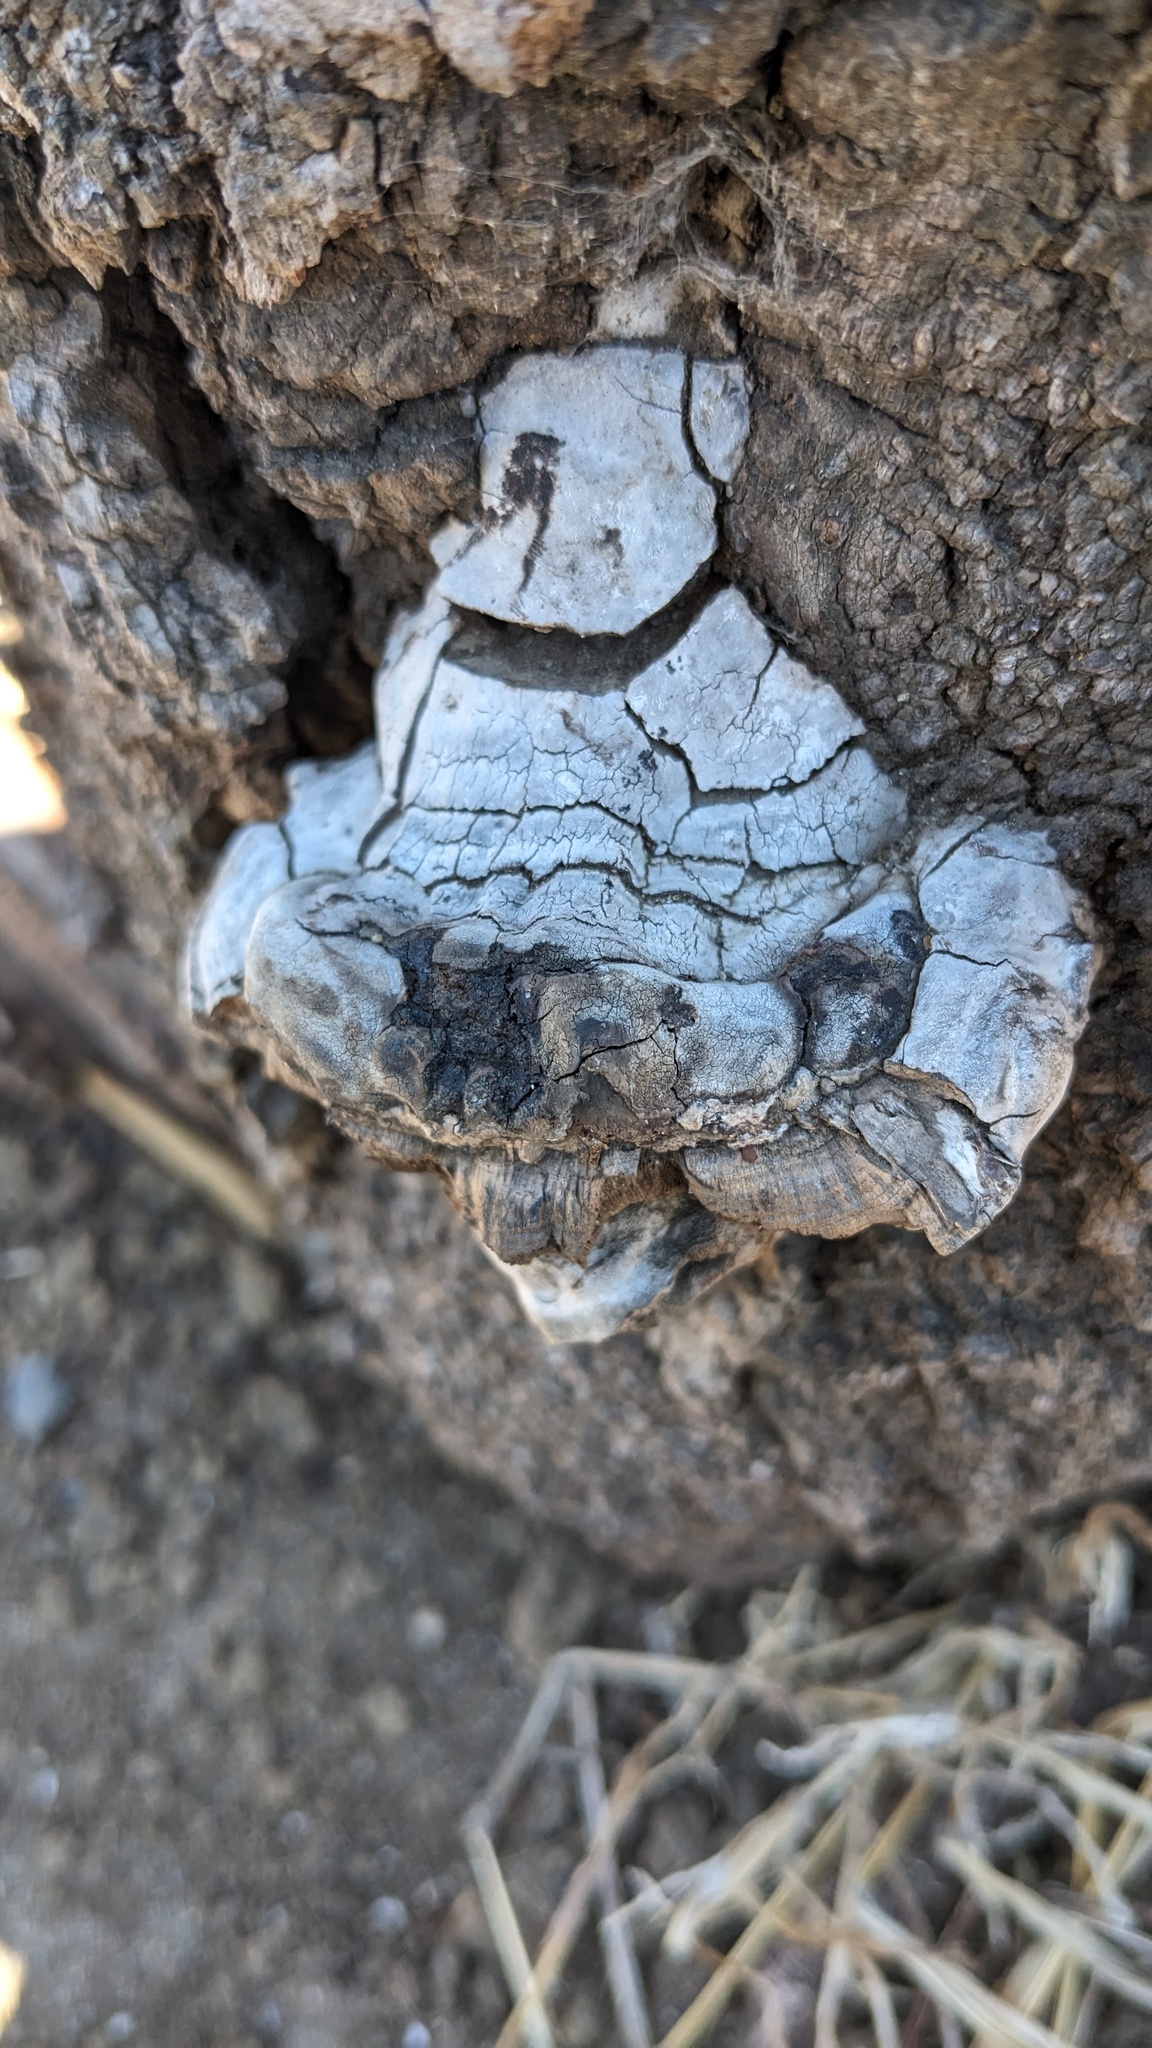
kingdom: Fungi
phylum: Basidiomycota
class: Agaricomycetes
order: Polyporales
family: Polyporaceae
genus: Ganoderma
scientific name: Ganoderma applanatum
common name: Artist's bracket
